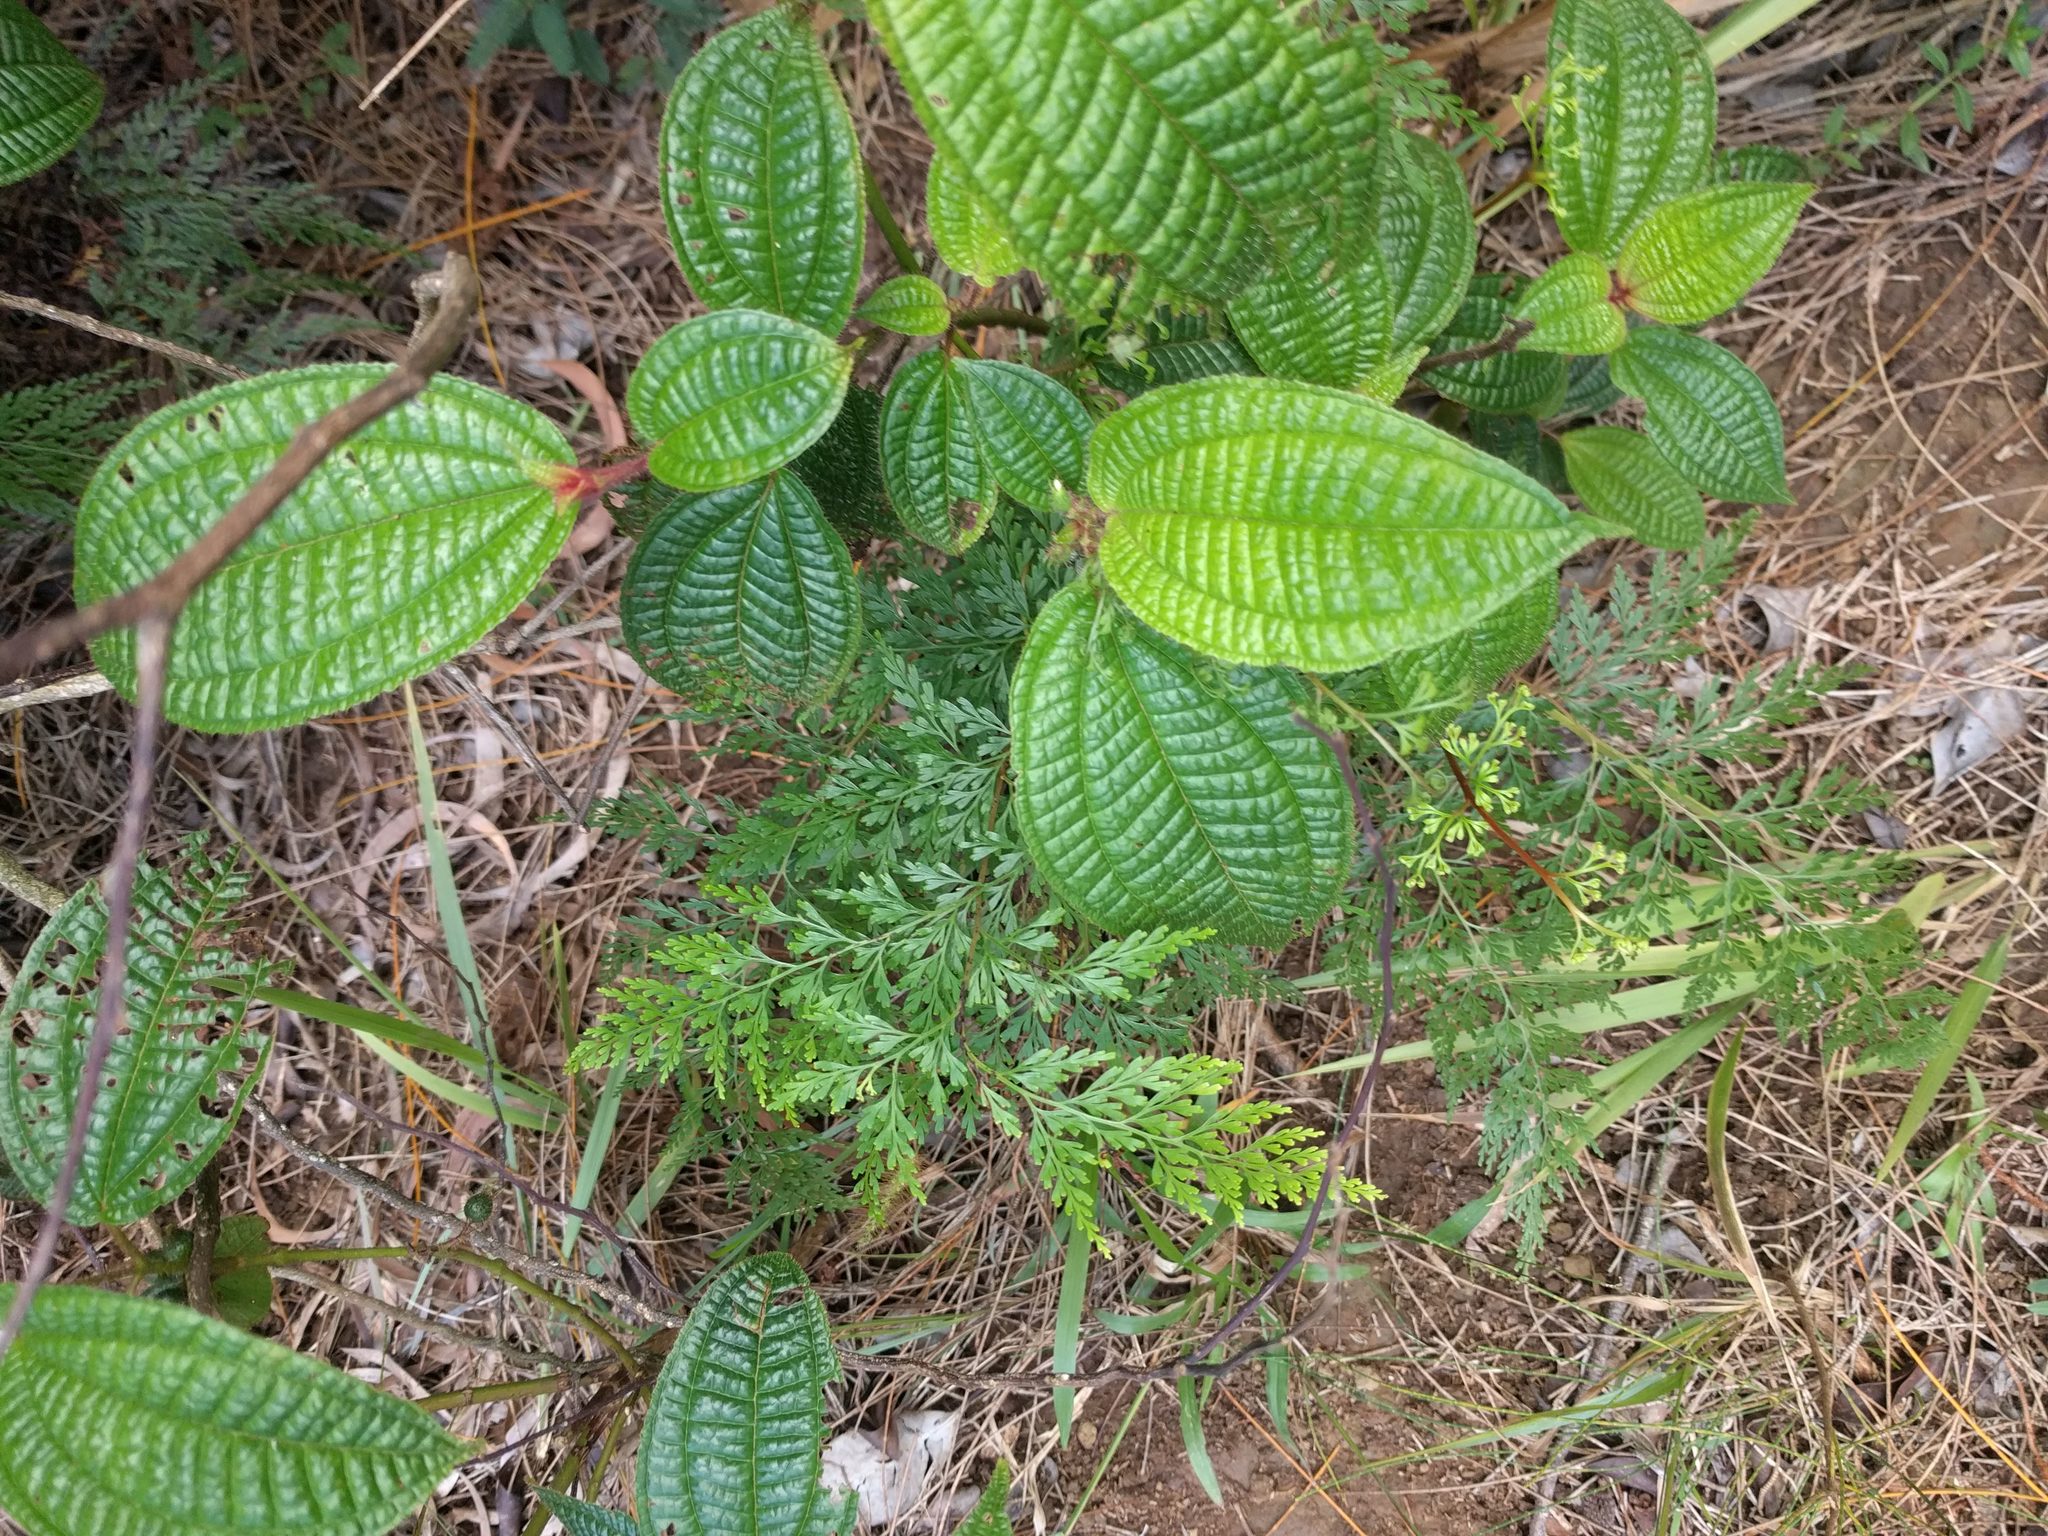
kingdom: Plantae
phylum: Tracheophyta
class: Magnoliopsida
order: Myrtales
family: Melastomataceae
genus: Miconia
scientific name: Miconia crenata
